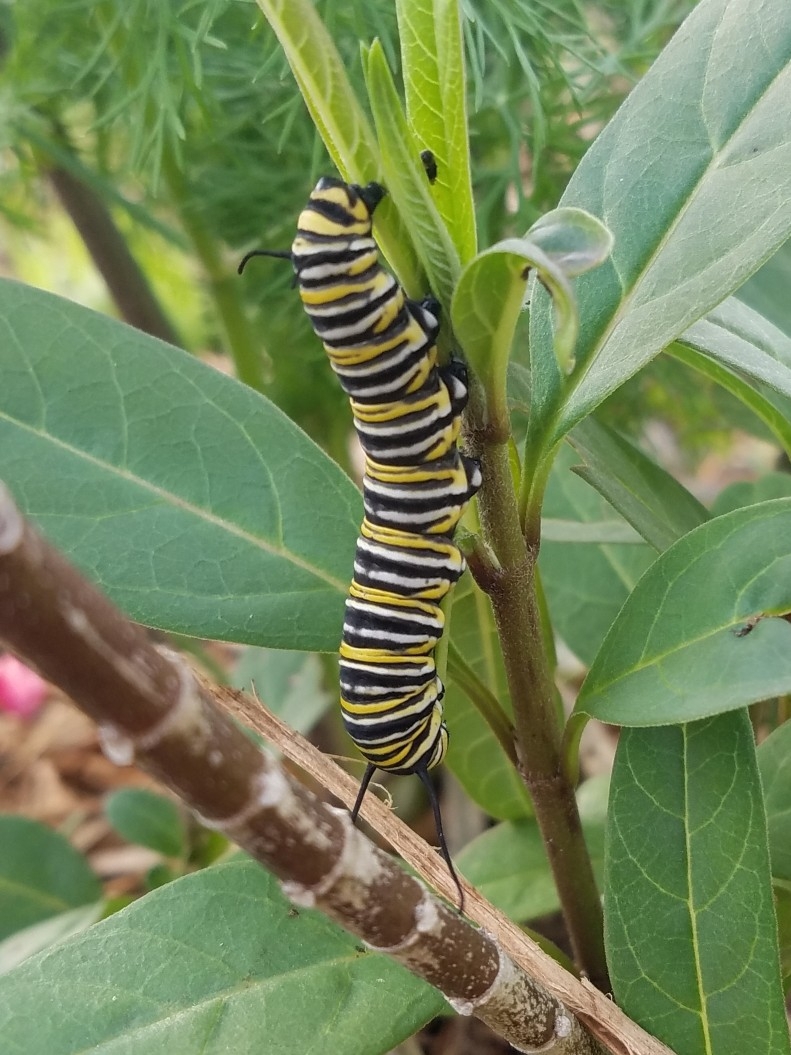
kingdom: Animalia
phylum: Arthropoda
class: Insecta
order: Lepidoptera
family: Nymphalidae
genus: Danaus
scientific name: Danaus plexippus
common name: Monarch
